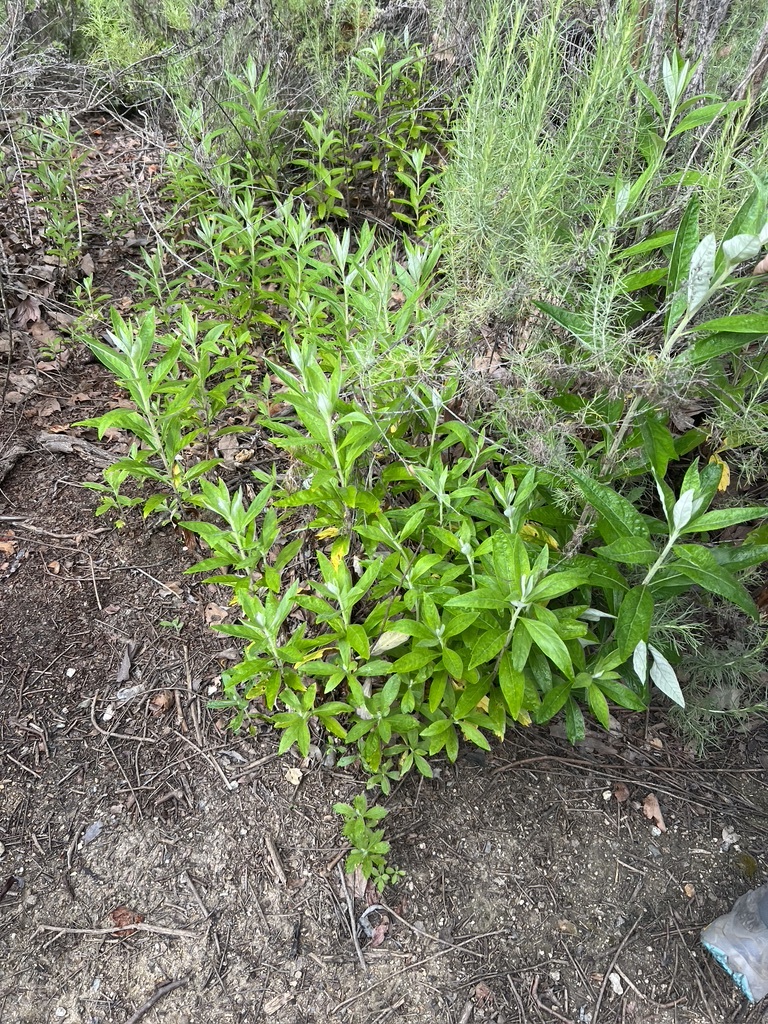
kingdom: Plantae
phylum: Tracheophyta
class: Magnoliopsida
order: Asterales
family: Asteraceae
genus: Artemisia
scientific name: Artemisia douglasiana
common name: Northwest mugwort
